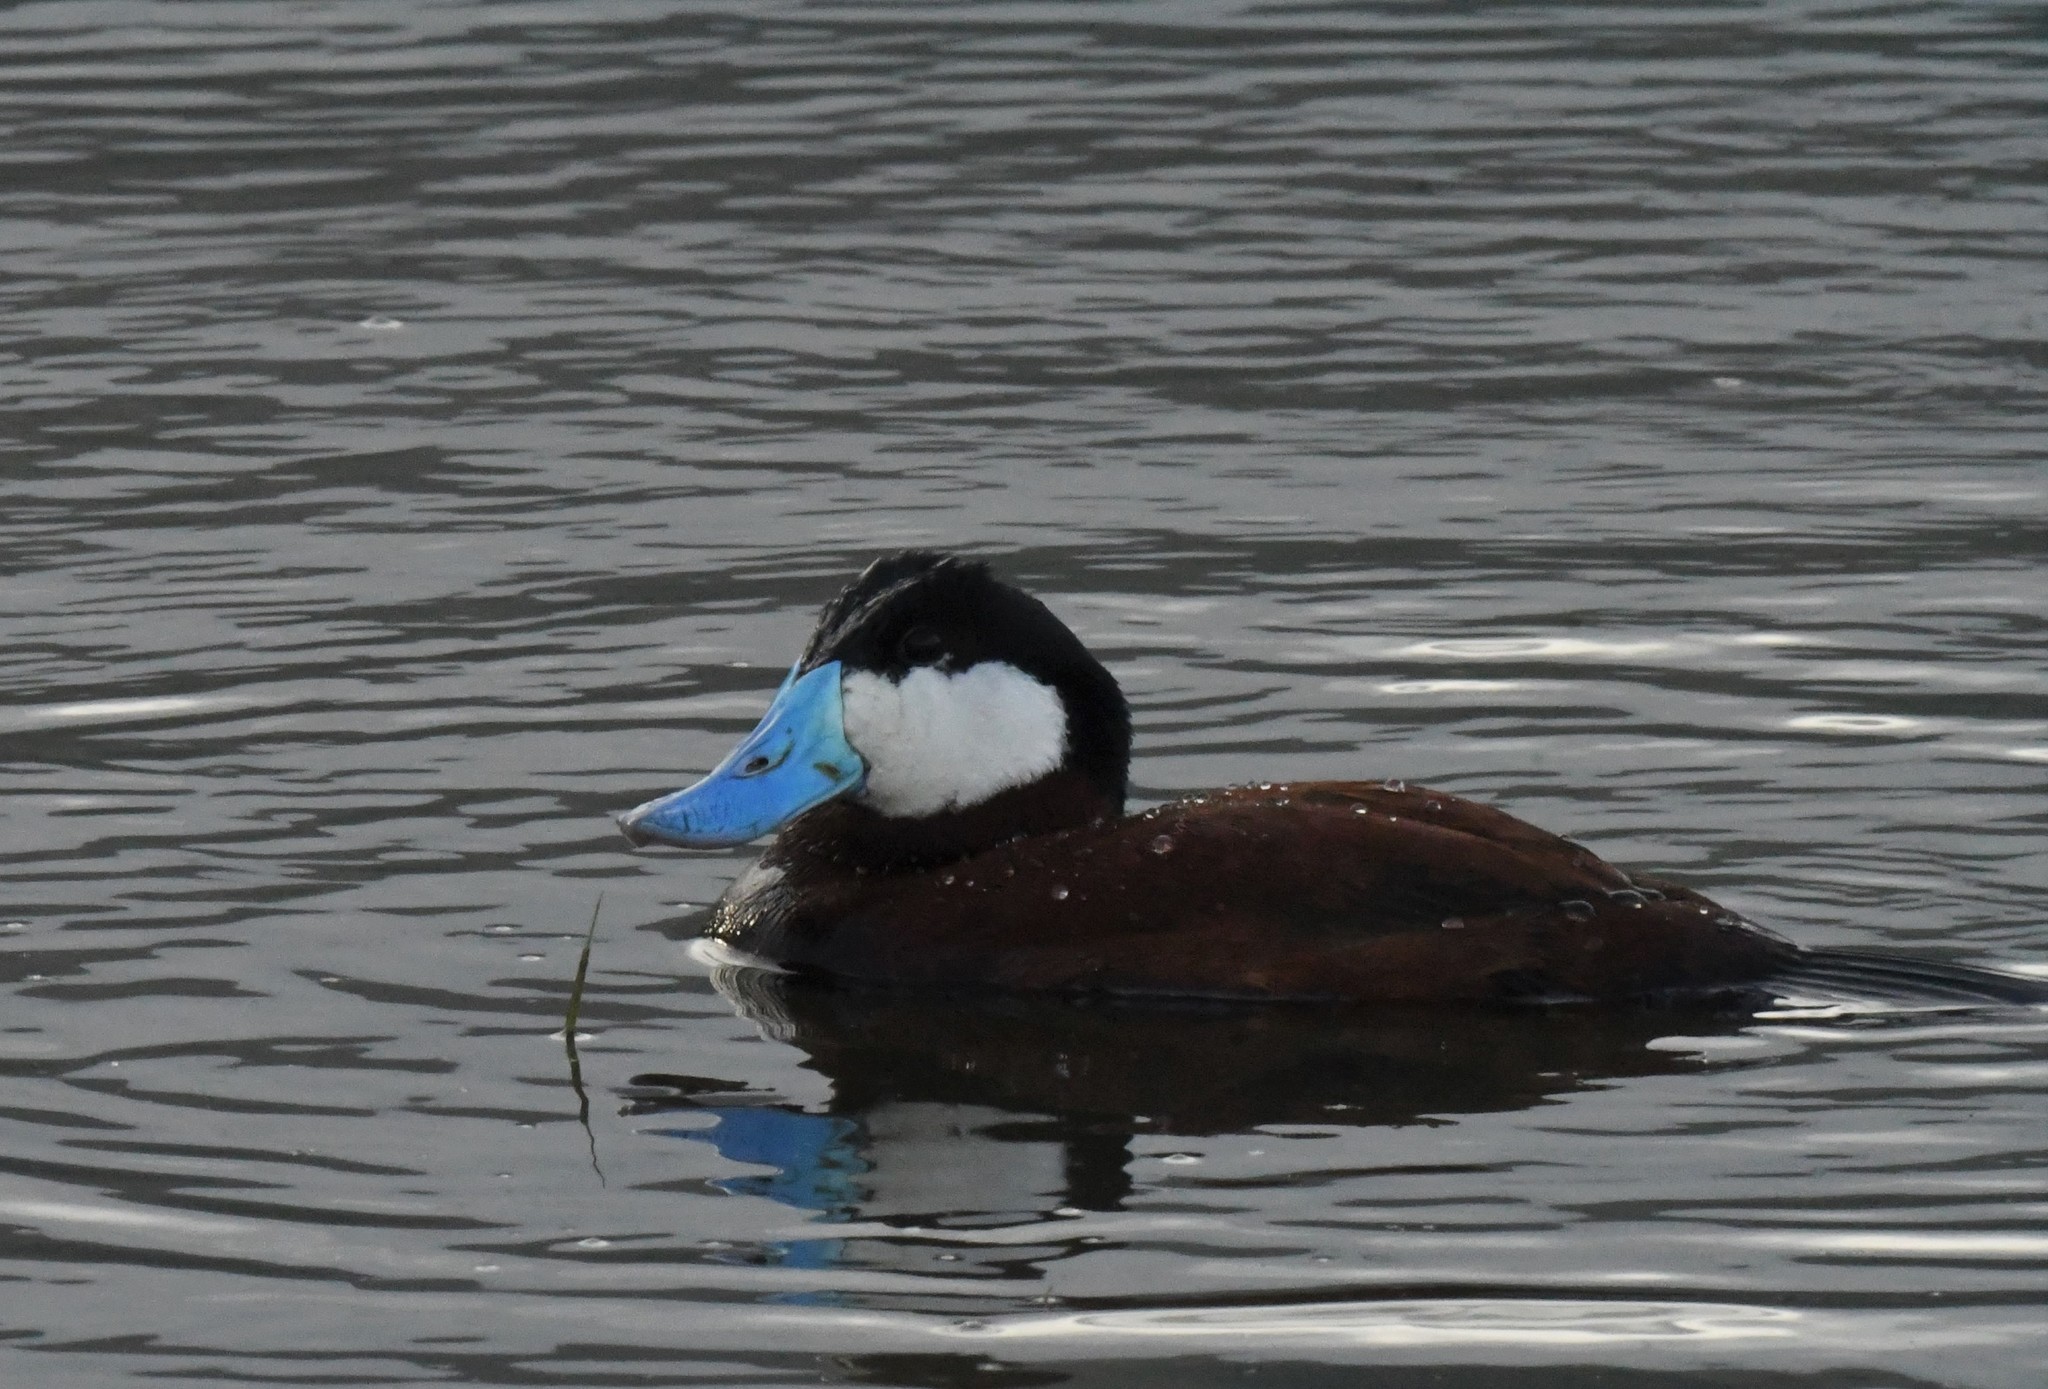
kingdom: Animalia
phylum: Chordata
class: Aves
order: Anseriformes
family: Anatidae
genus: Oxyura
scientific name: Oxyura jamaicensis
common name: Ruddy duck
